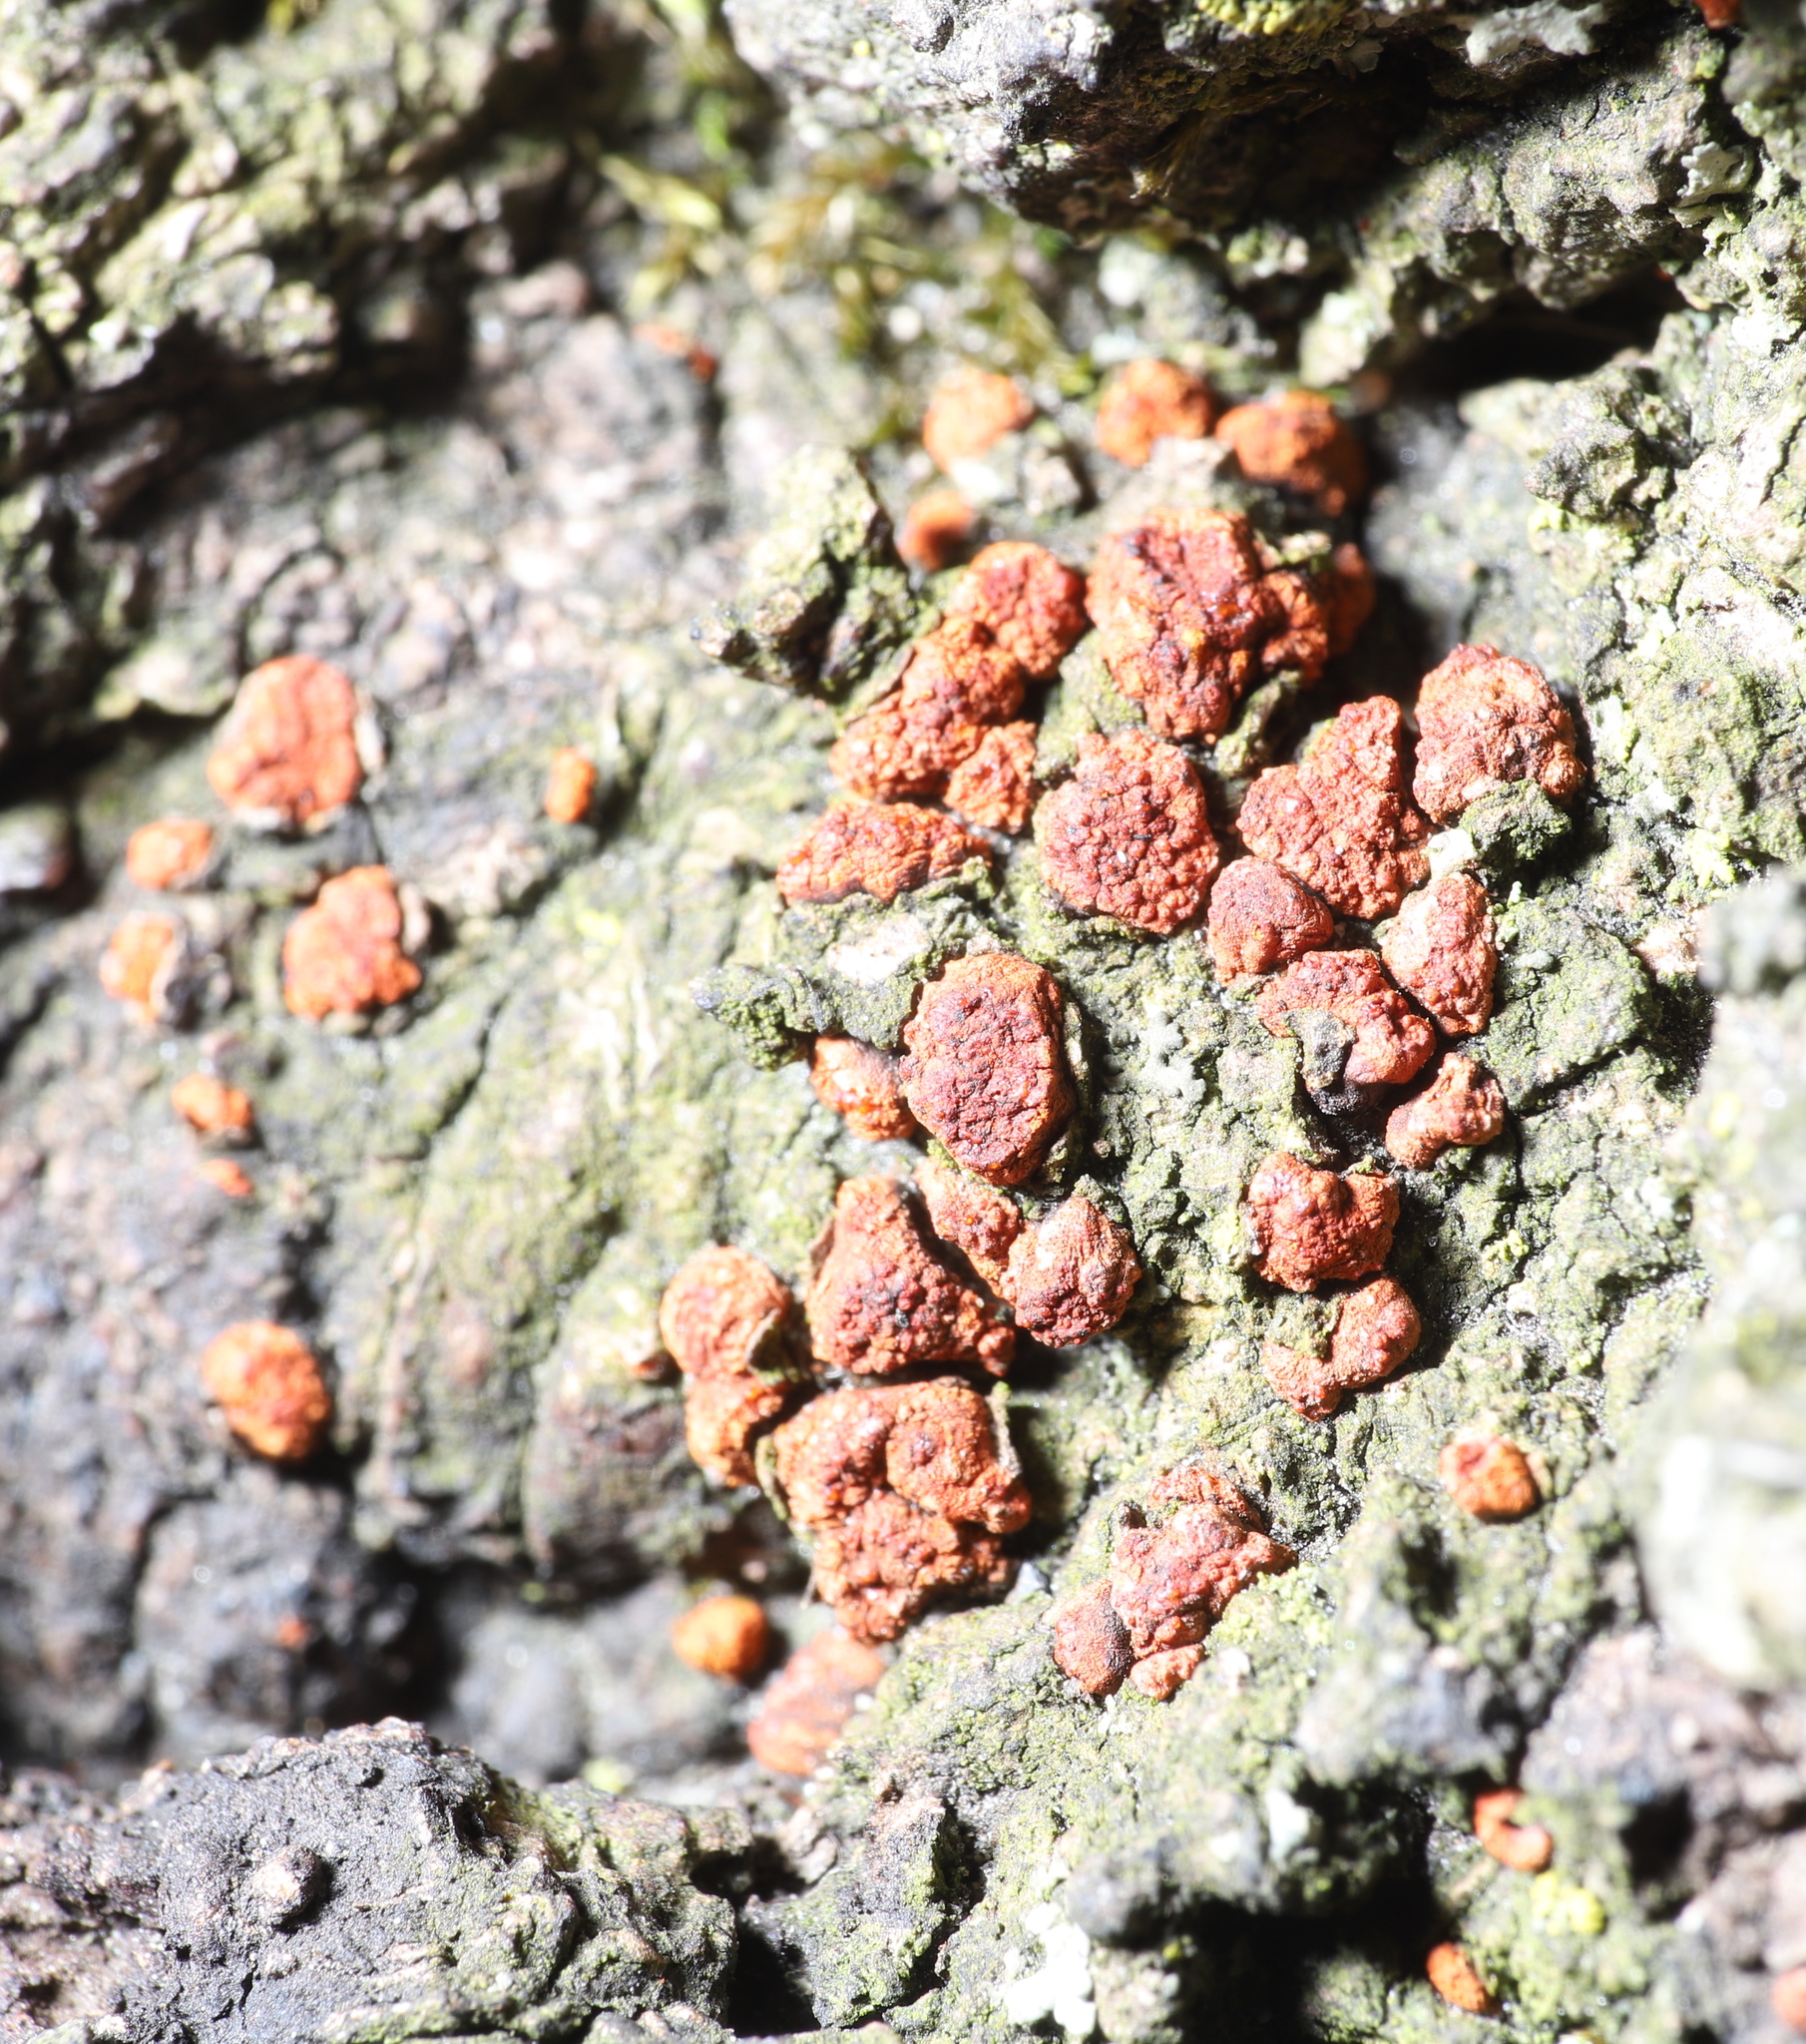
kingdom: Fungi
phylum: Ascomycota
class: Sordariomycetes
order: Diaporthales
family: Cryphonectriaceae
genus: Amphilogia
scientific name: Amphilogia gyrosa
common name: Orange hobnail canker
